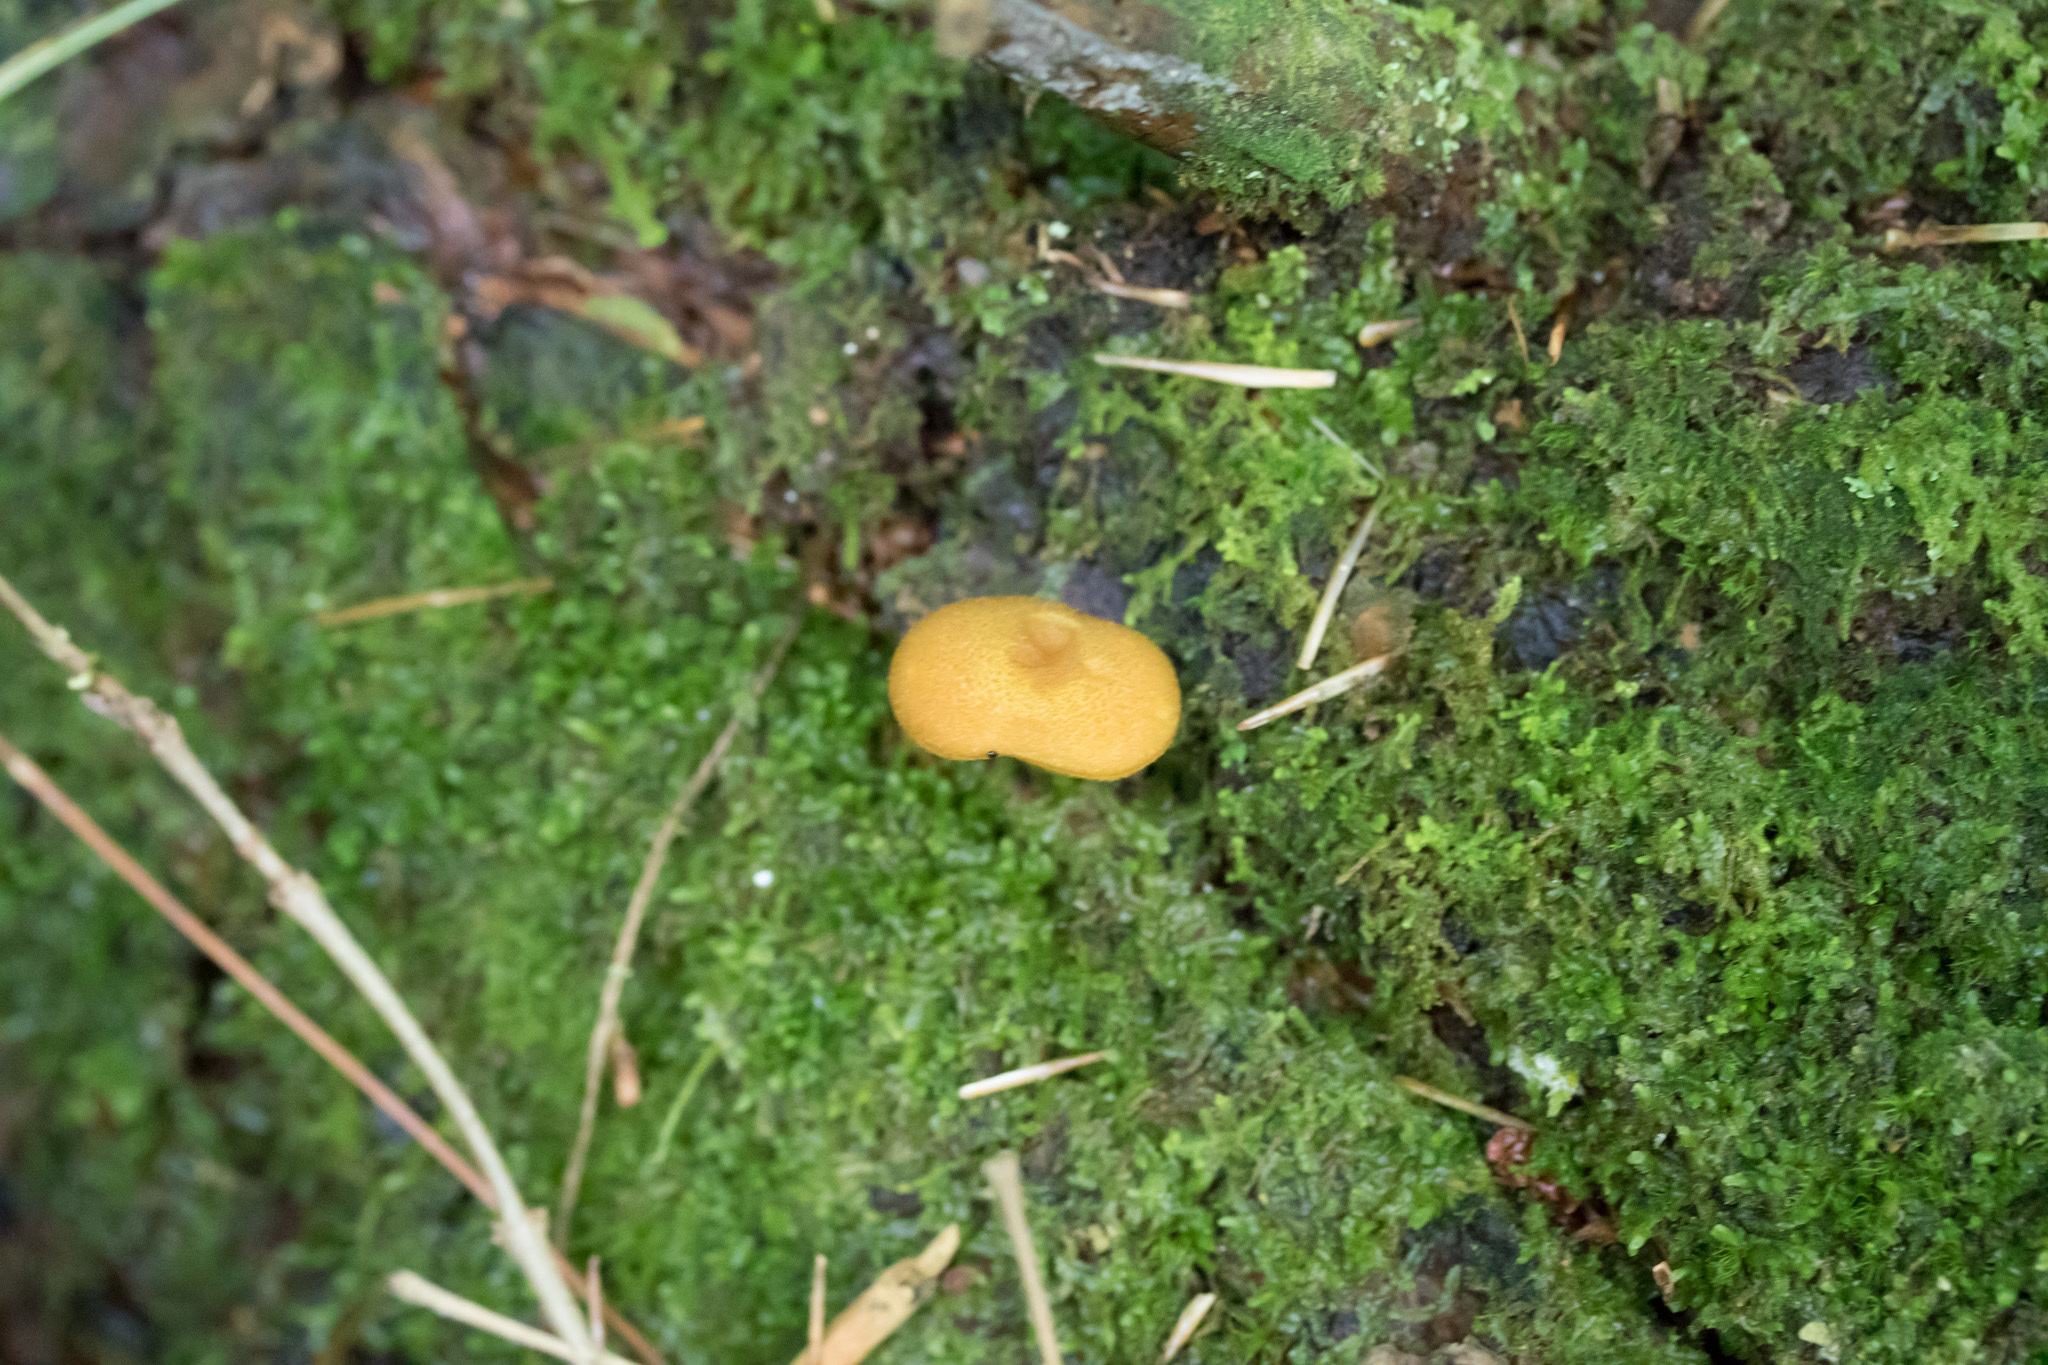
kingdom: Fungi
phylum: Basidiomycota
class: Agaricomycetes
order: Agaricales
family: Tricholomataceae
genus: Tricholomopsis
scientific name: Tricholomopsis decora
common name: Prunes and custard
